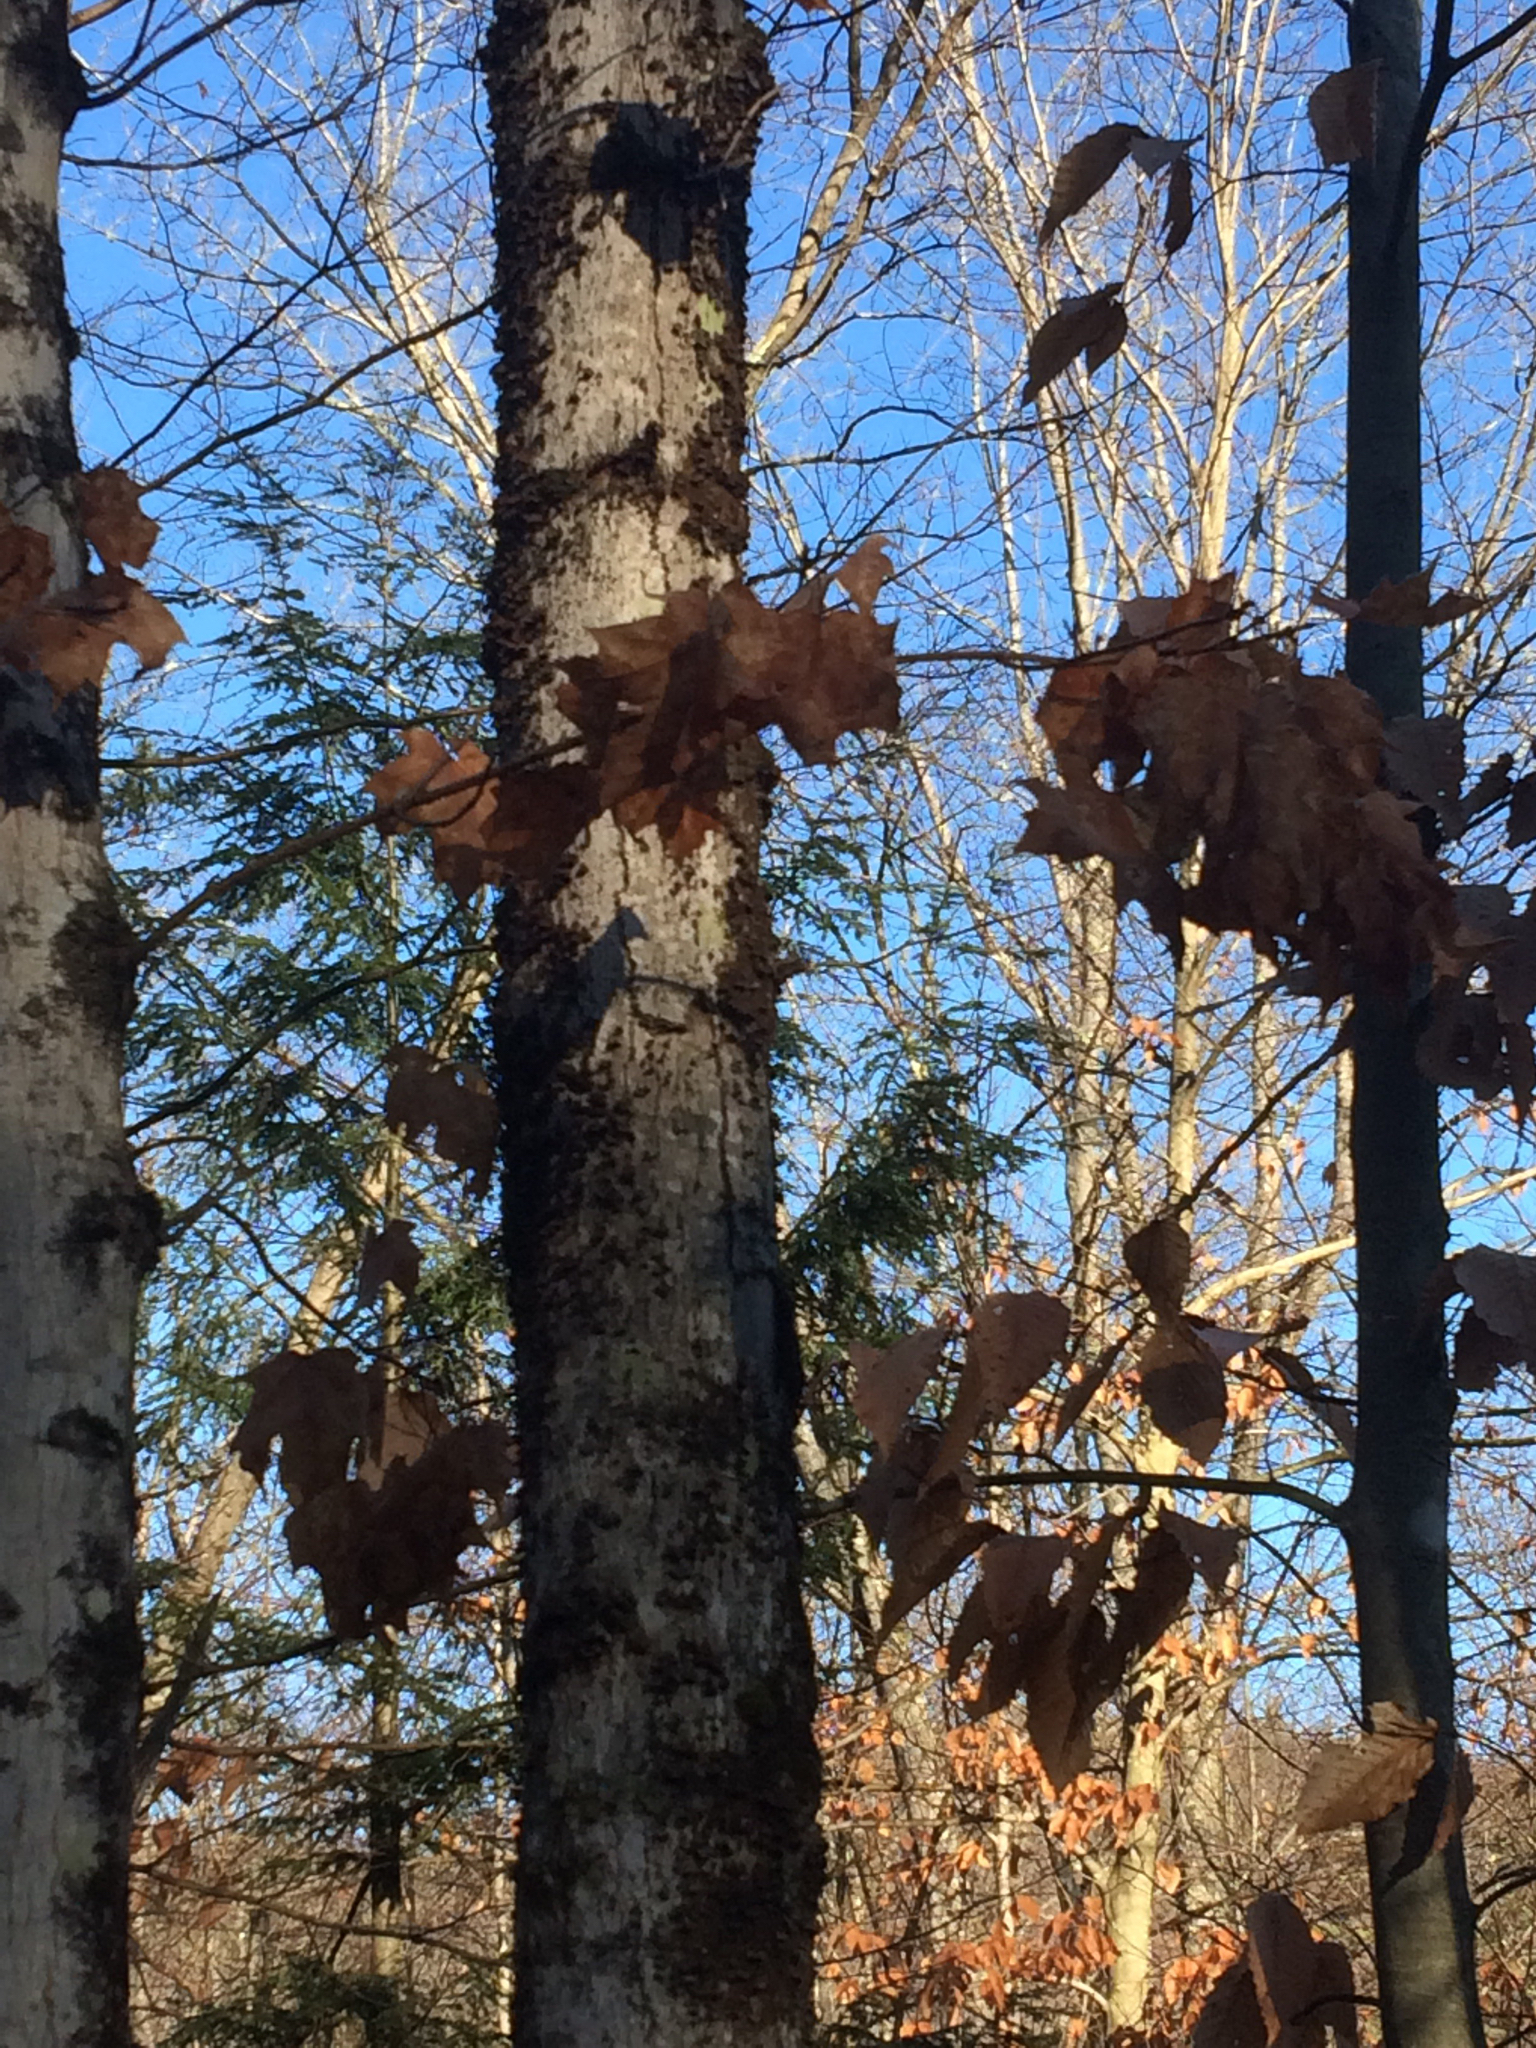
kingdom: Plantae
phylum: Tracheophyta
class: Magnoliopsida
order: Sapindales
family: Sapindaceae
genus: Acer
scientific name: Acer saccharum
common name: Sugar maple
